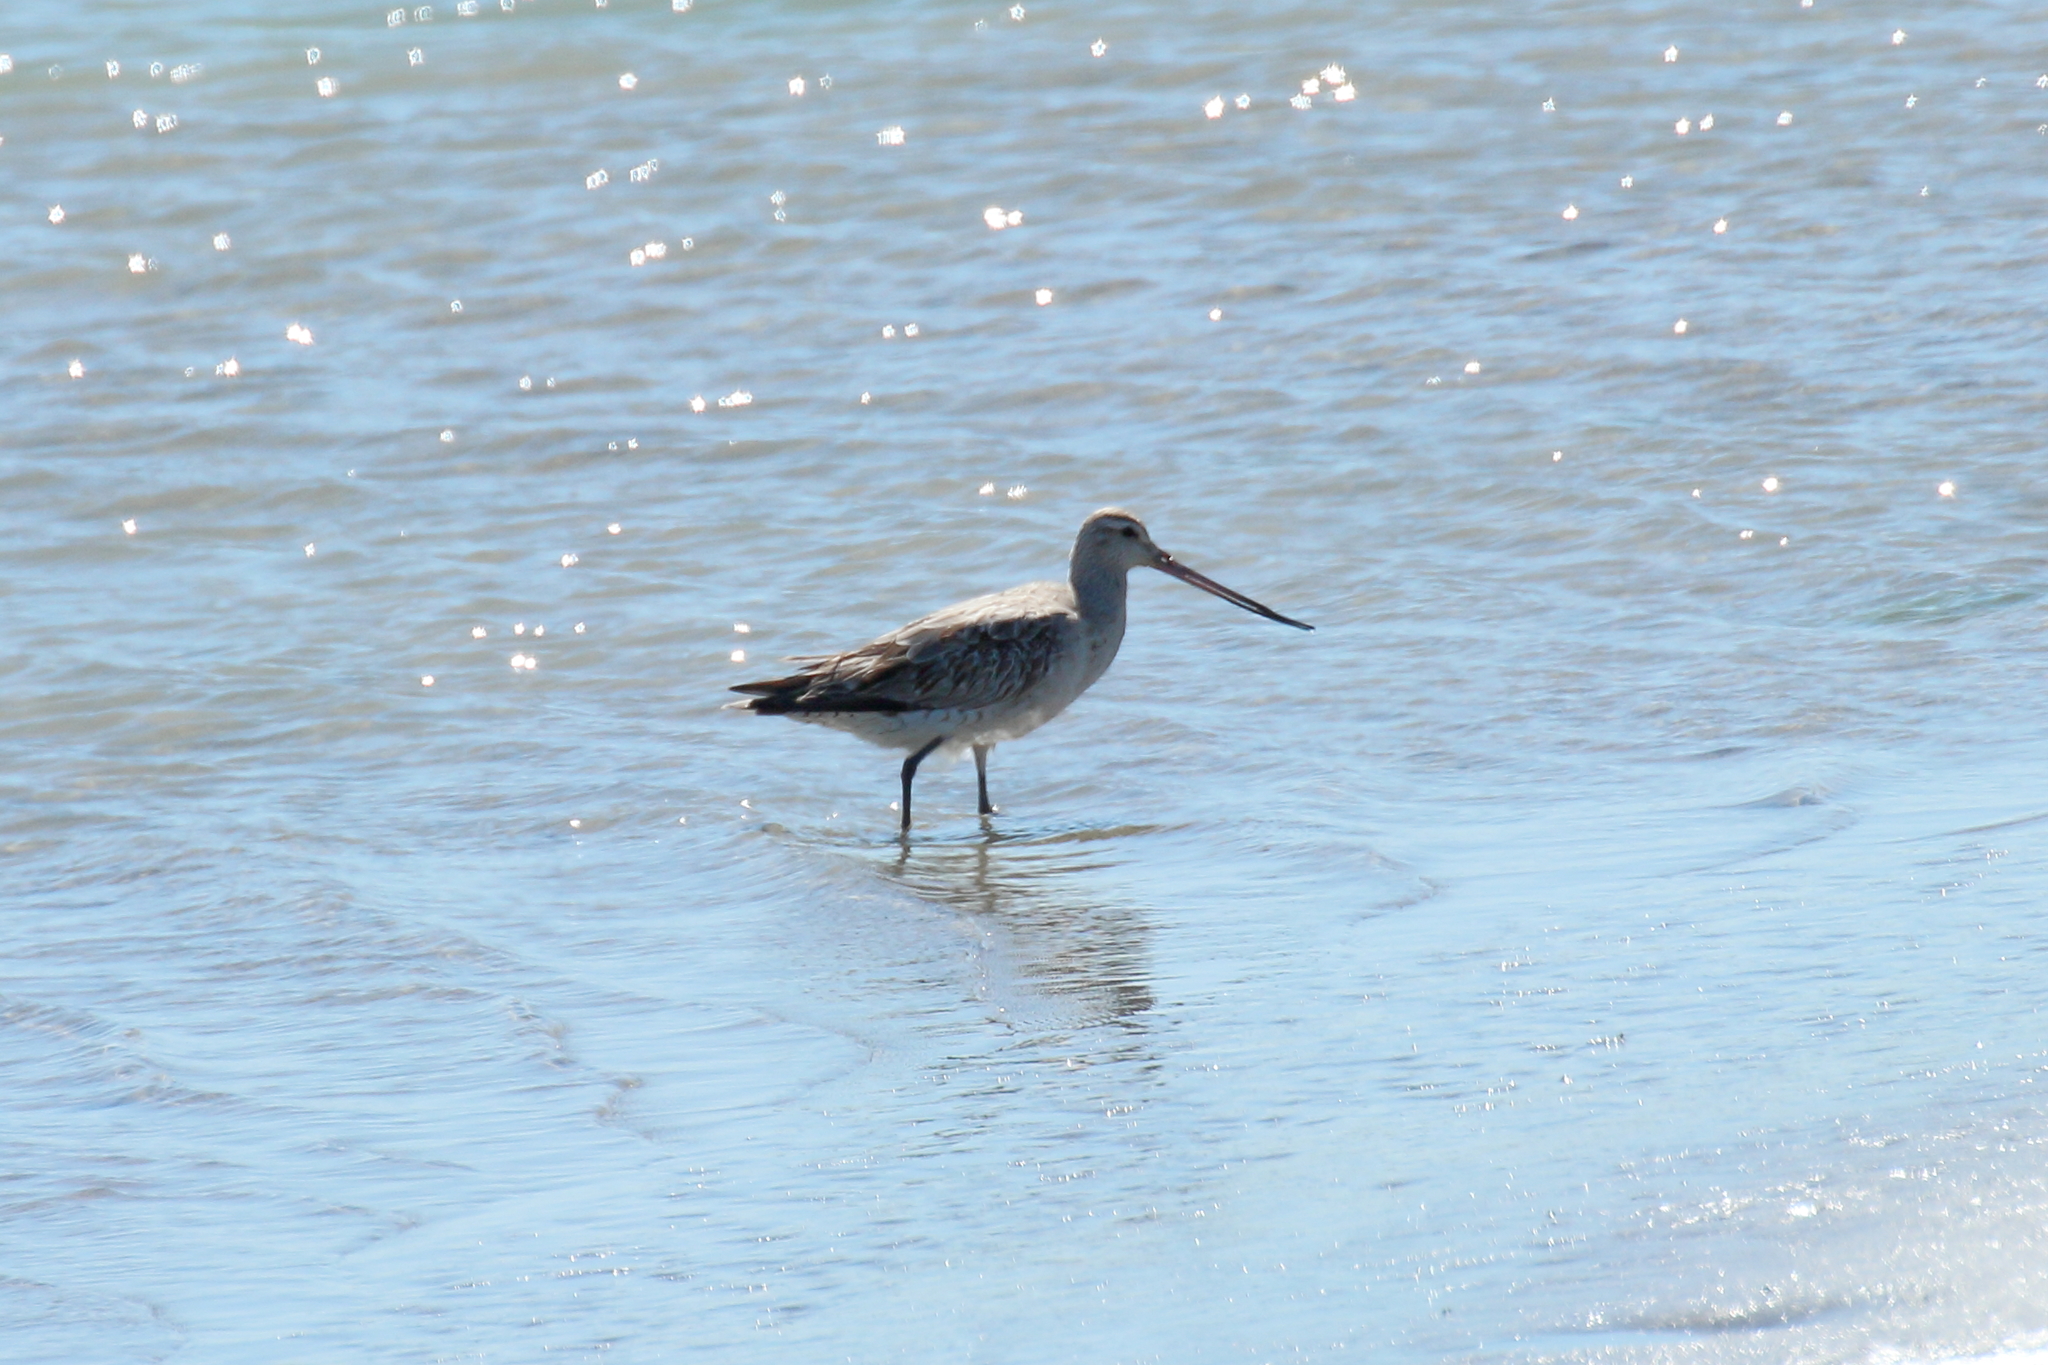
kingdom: Animalia
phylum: Chordata
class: Aves
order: Charadriiformes
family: Scolopacidae
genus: Limosa
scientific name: Limosa lapponica
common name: Bar-tailed godwit
